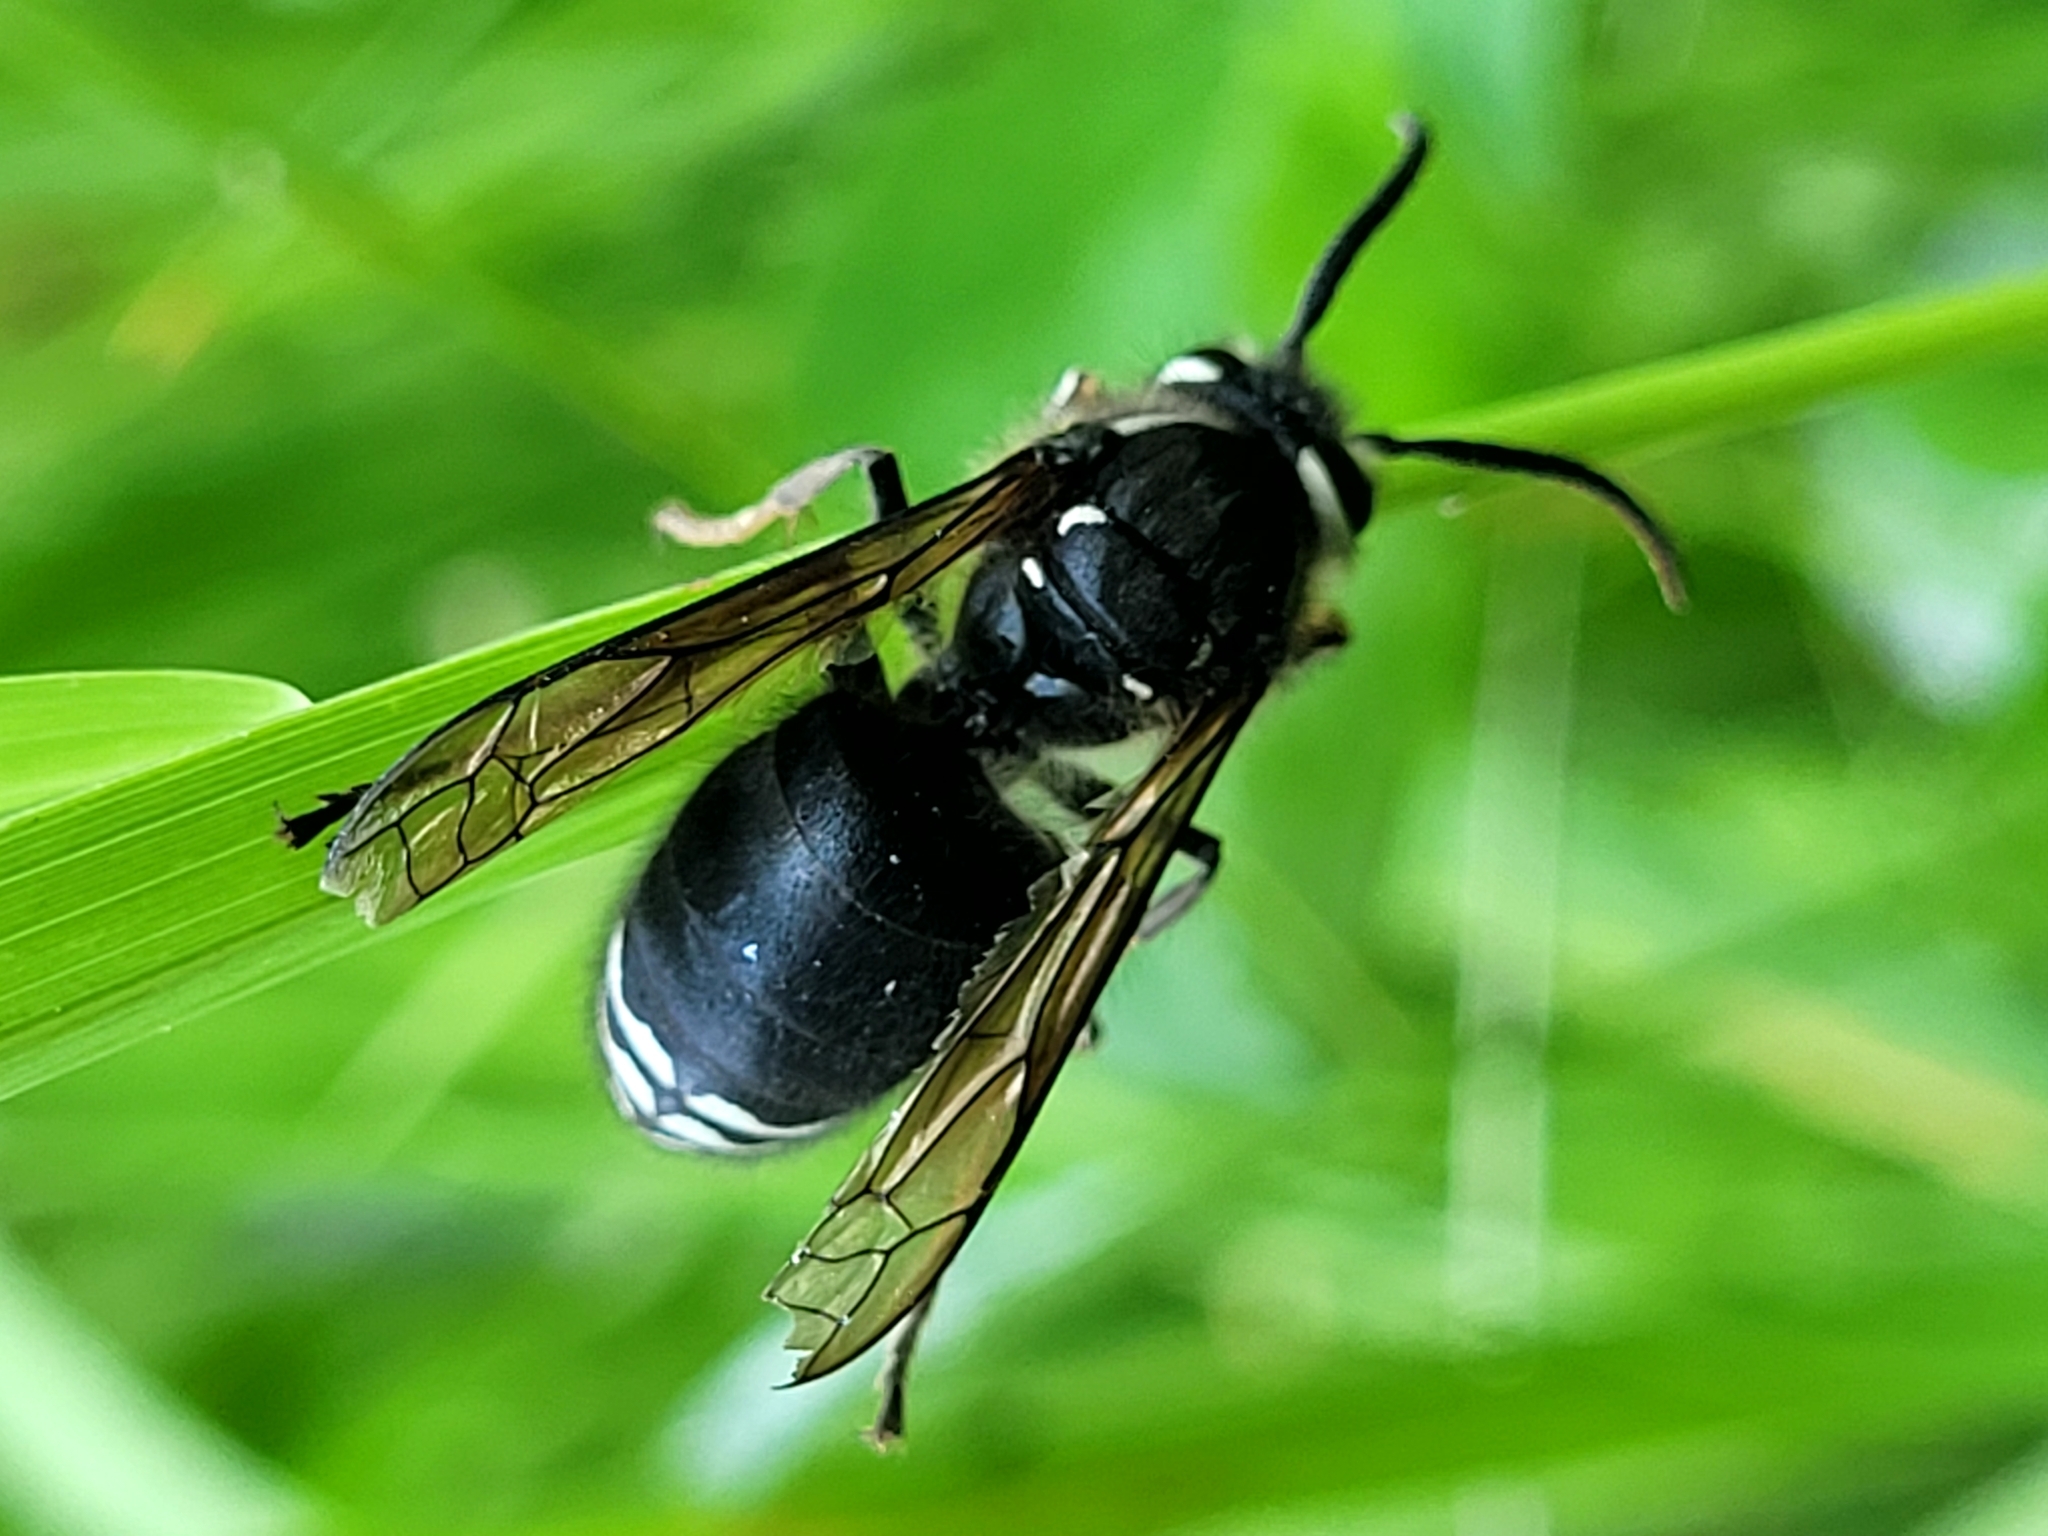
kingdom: Animalia
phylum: Arthropoda
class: Insecta
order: Hymenoptera
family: Vespidae
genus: Dolichovespula
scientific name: Dolichovespula maculata
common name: Bald-faced hornet
